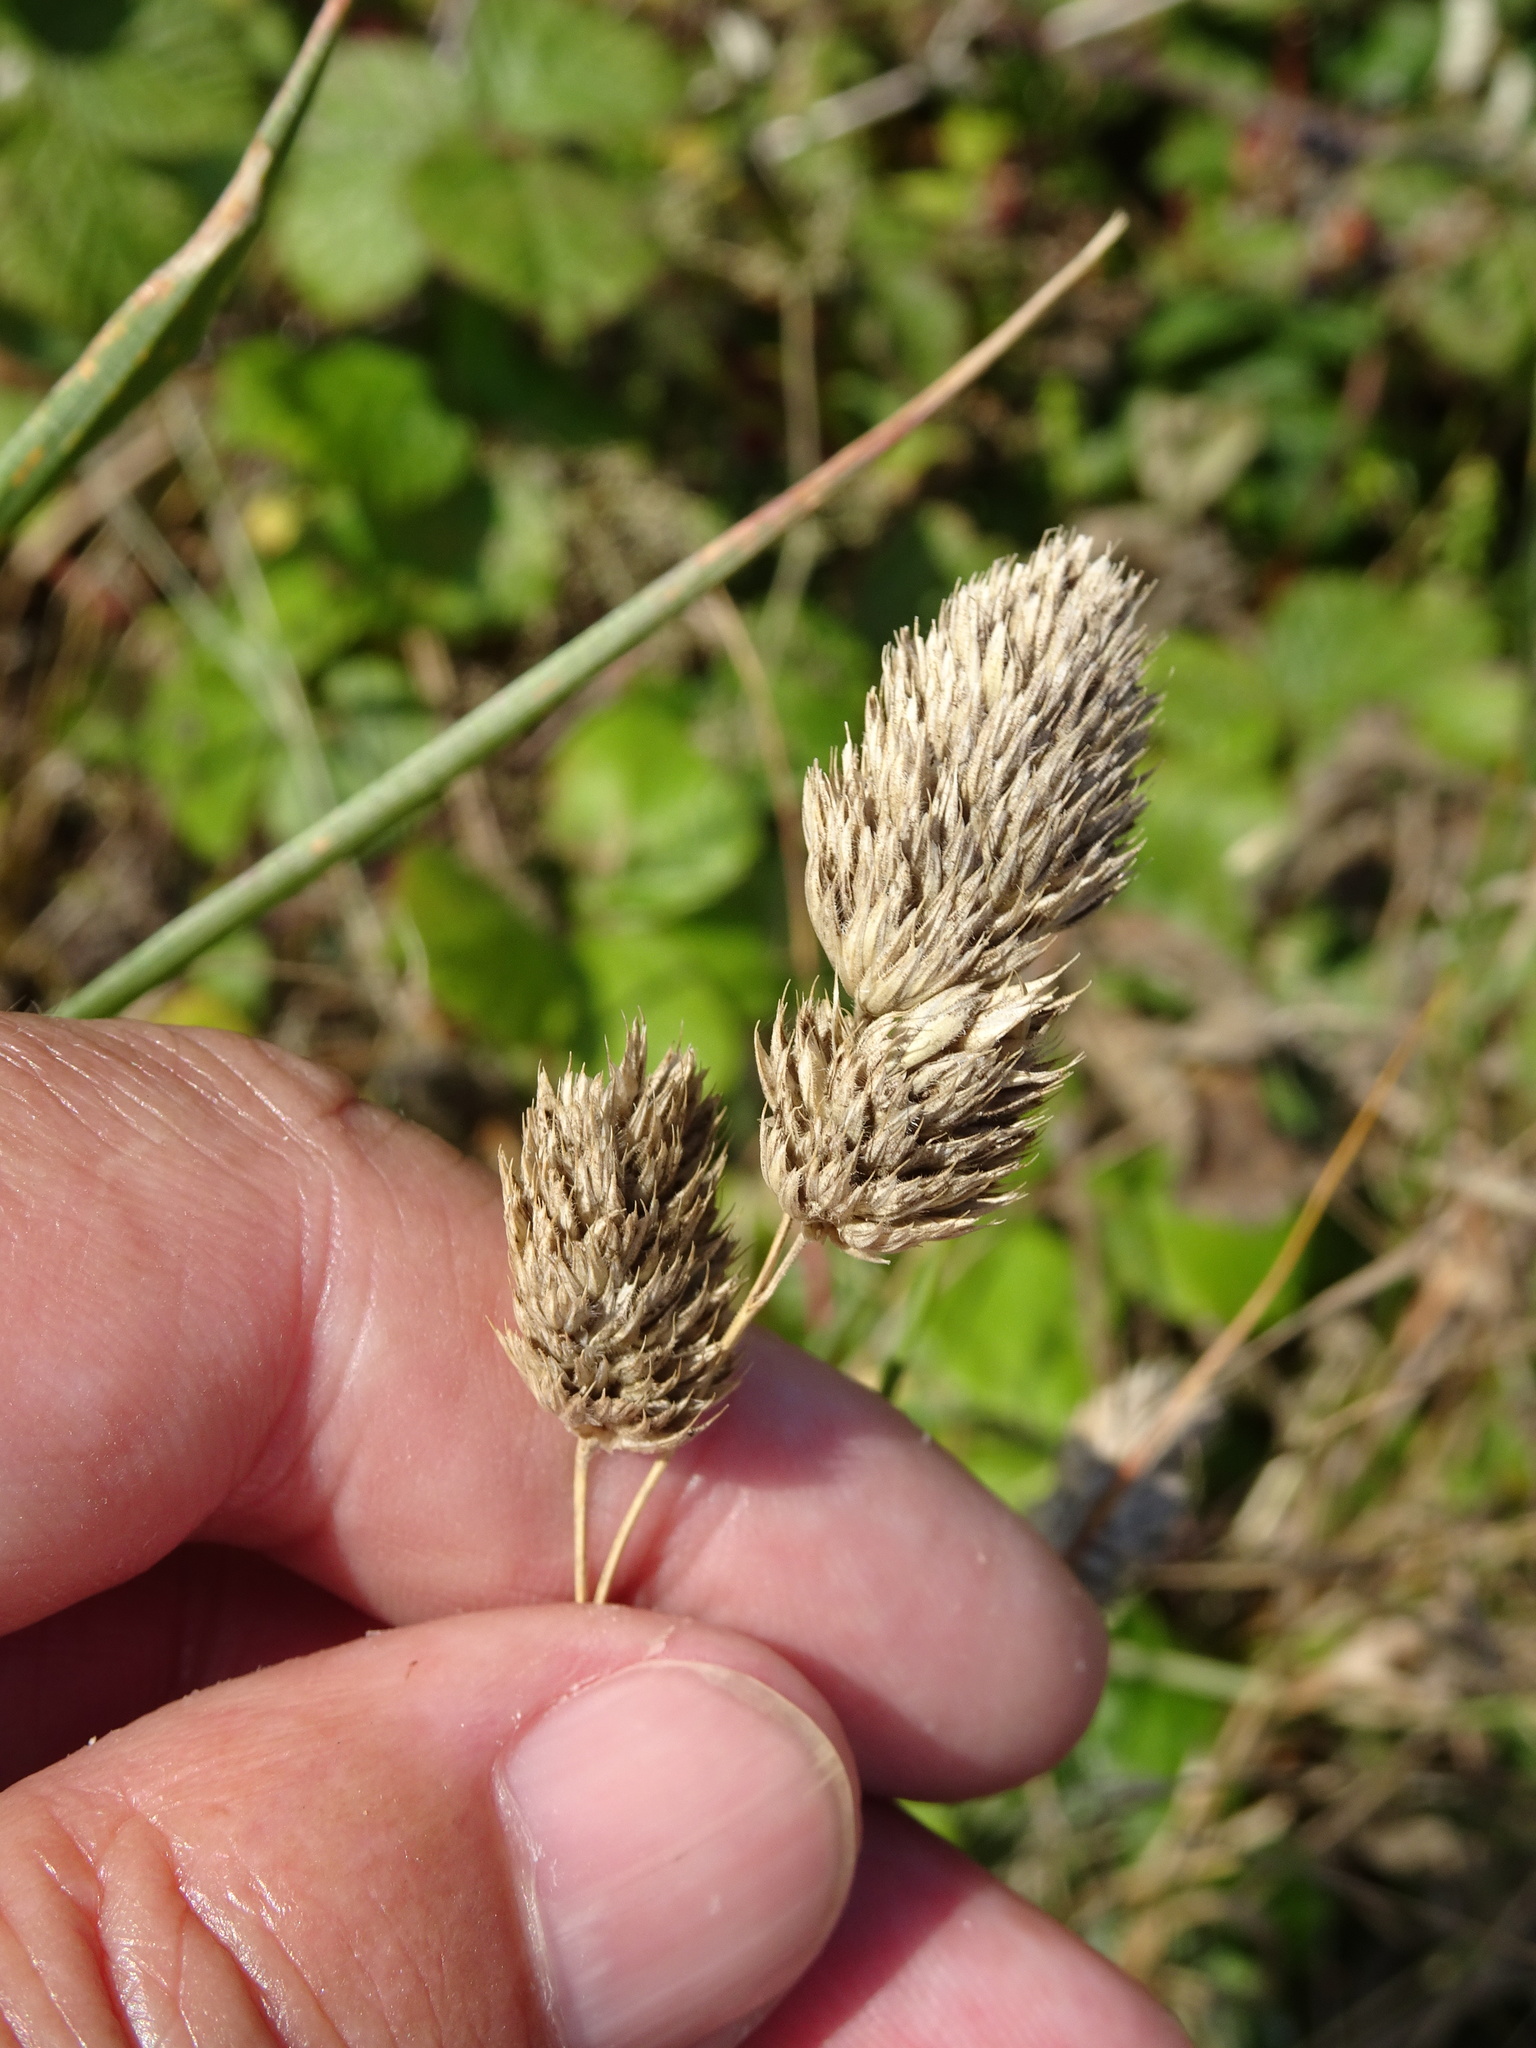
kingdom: Plantae
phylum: Tracheophyta
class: Liliopsida
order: Poales
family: Poaceae
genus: Dactylis
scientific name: Dactylis glomerata
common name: Orchardgrass
